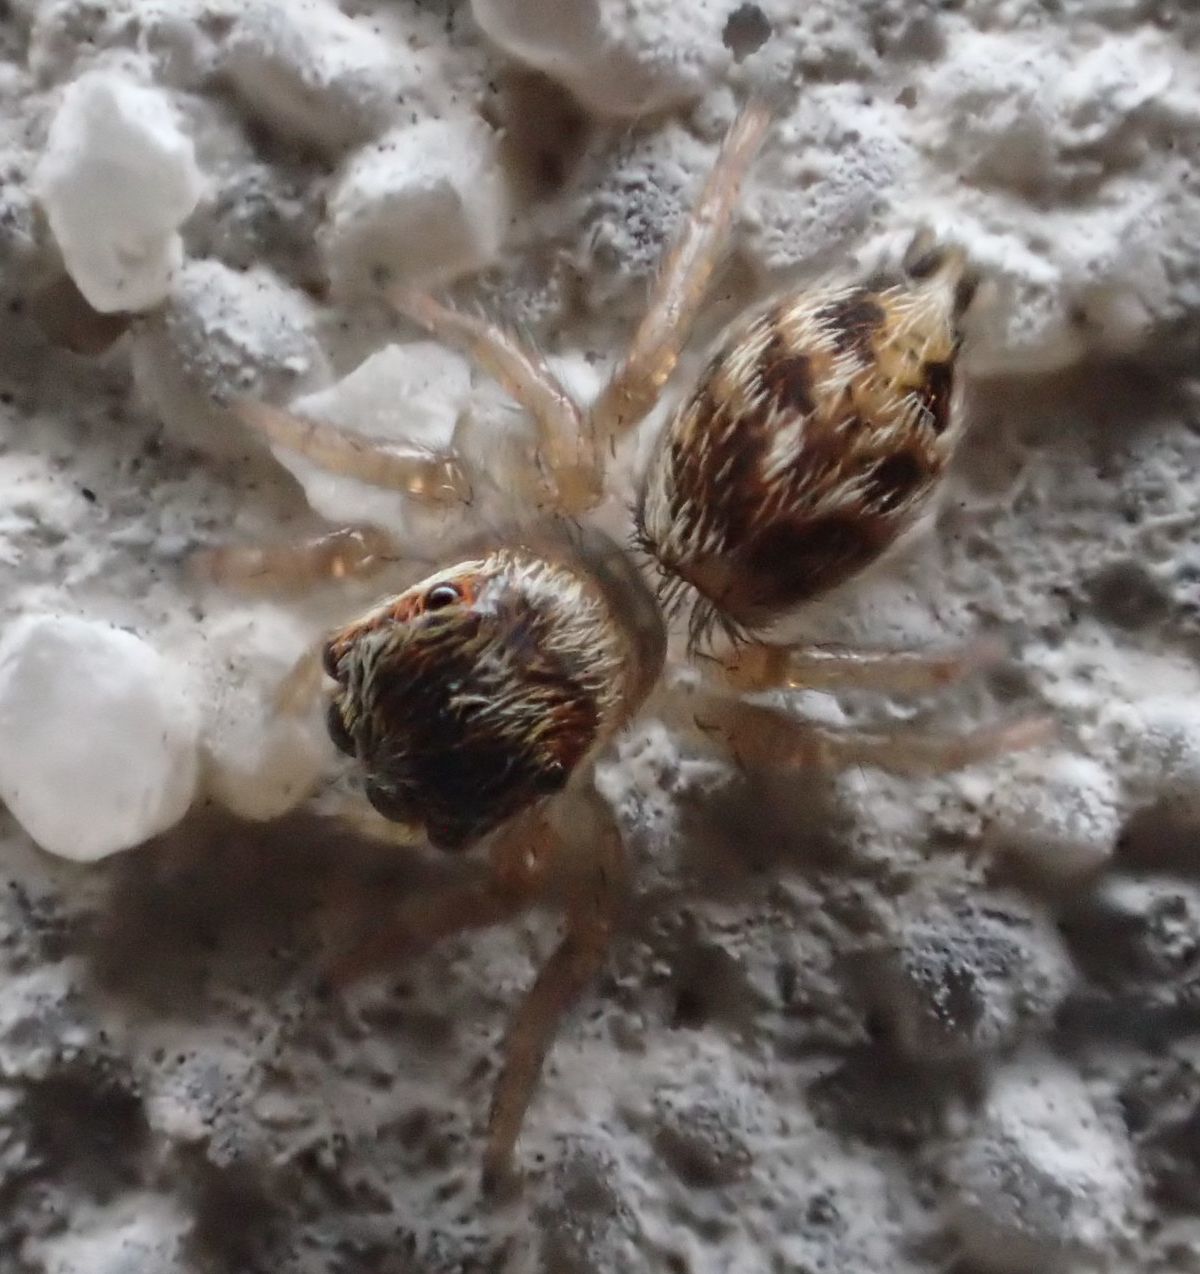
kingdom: Animalia
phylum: Arthropoda
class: Arachnida
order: Araneae
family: Salticidae
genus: Maratus
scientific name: Maratus griseus
